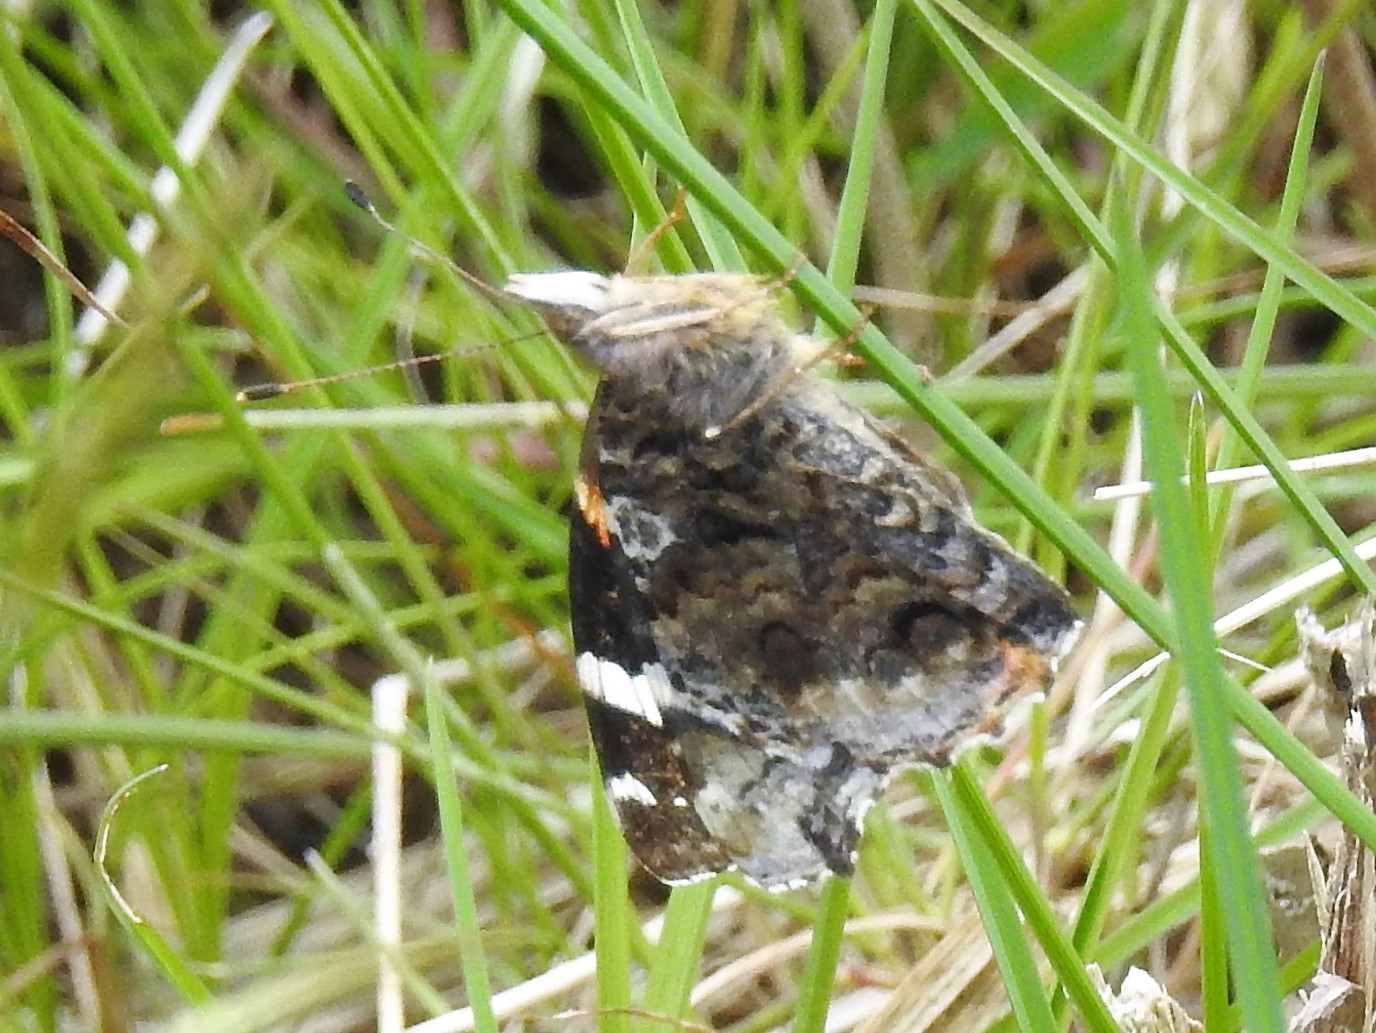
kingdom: Animalia
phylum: Arthropoda
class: Insecta
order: Lepidoptera
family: Nymphalidae
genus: Vanessa
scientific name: Vanessa atalanta
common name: Red admiral
